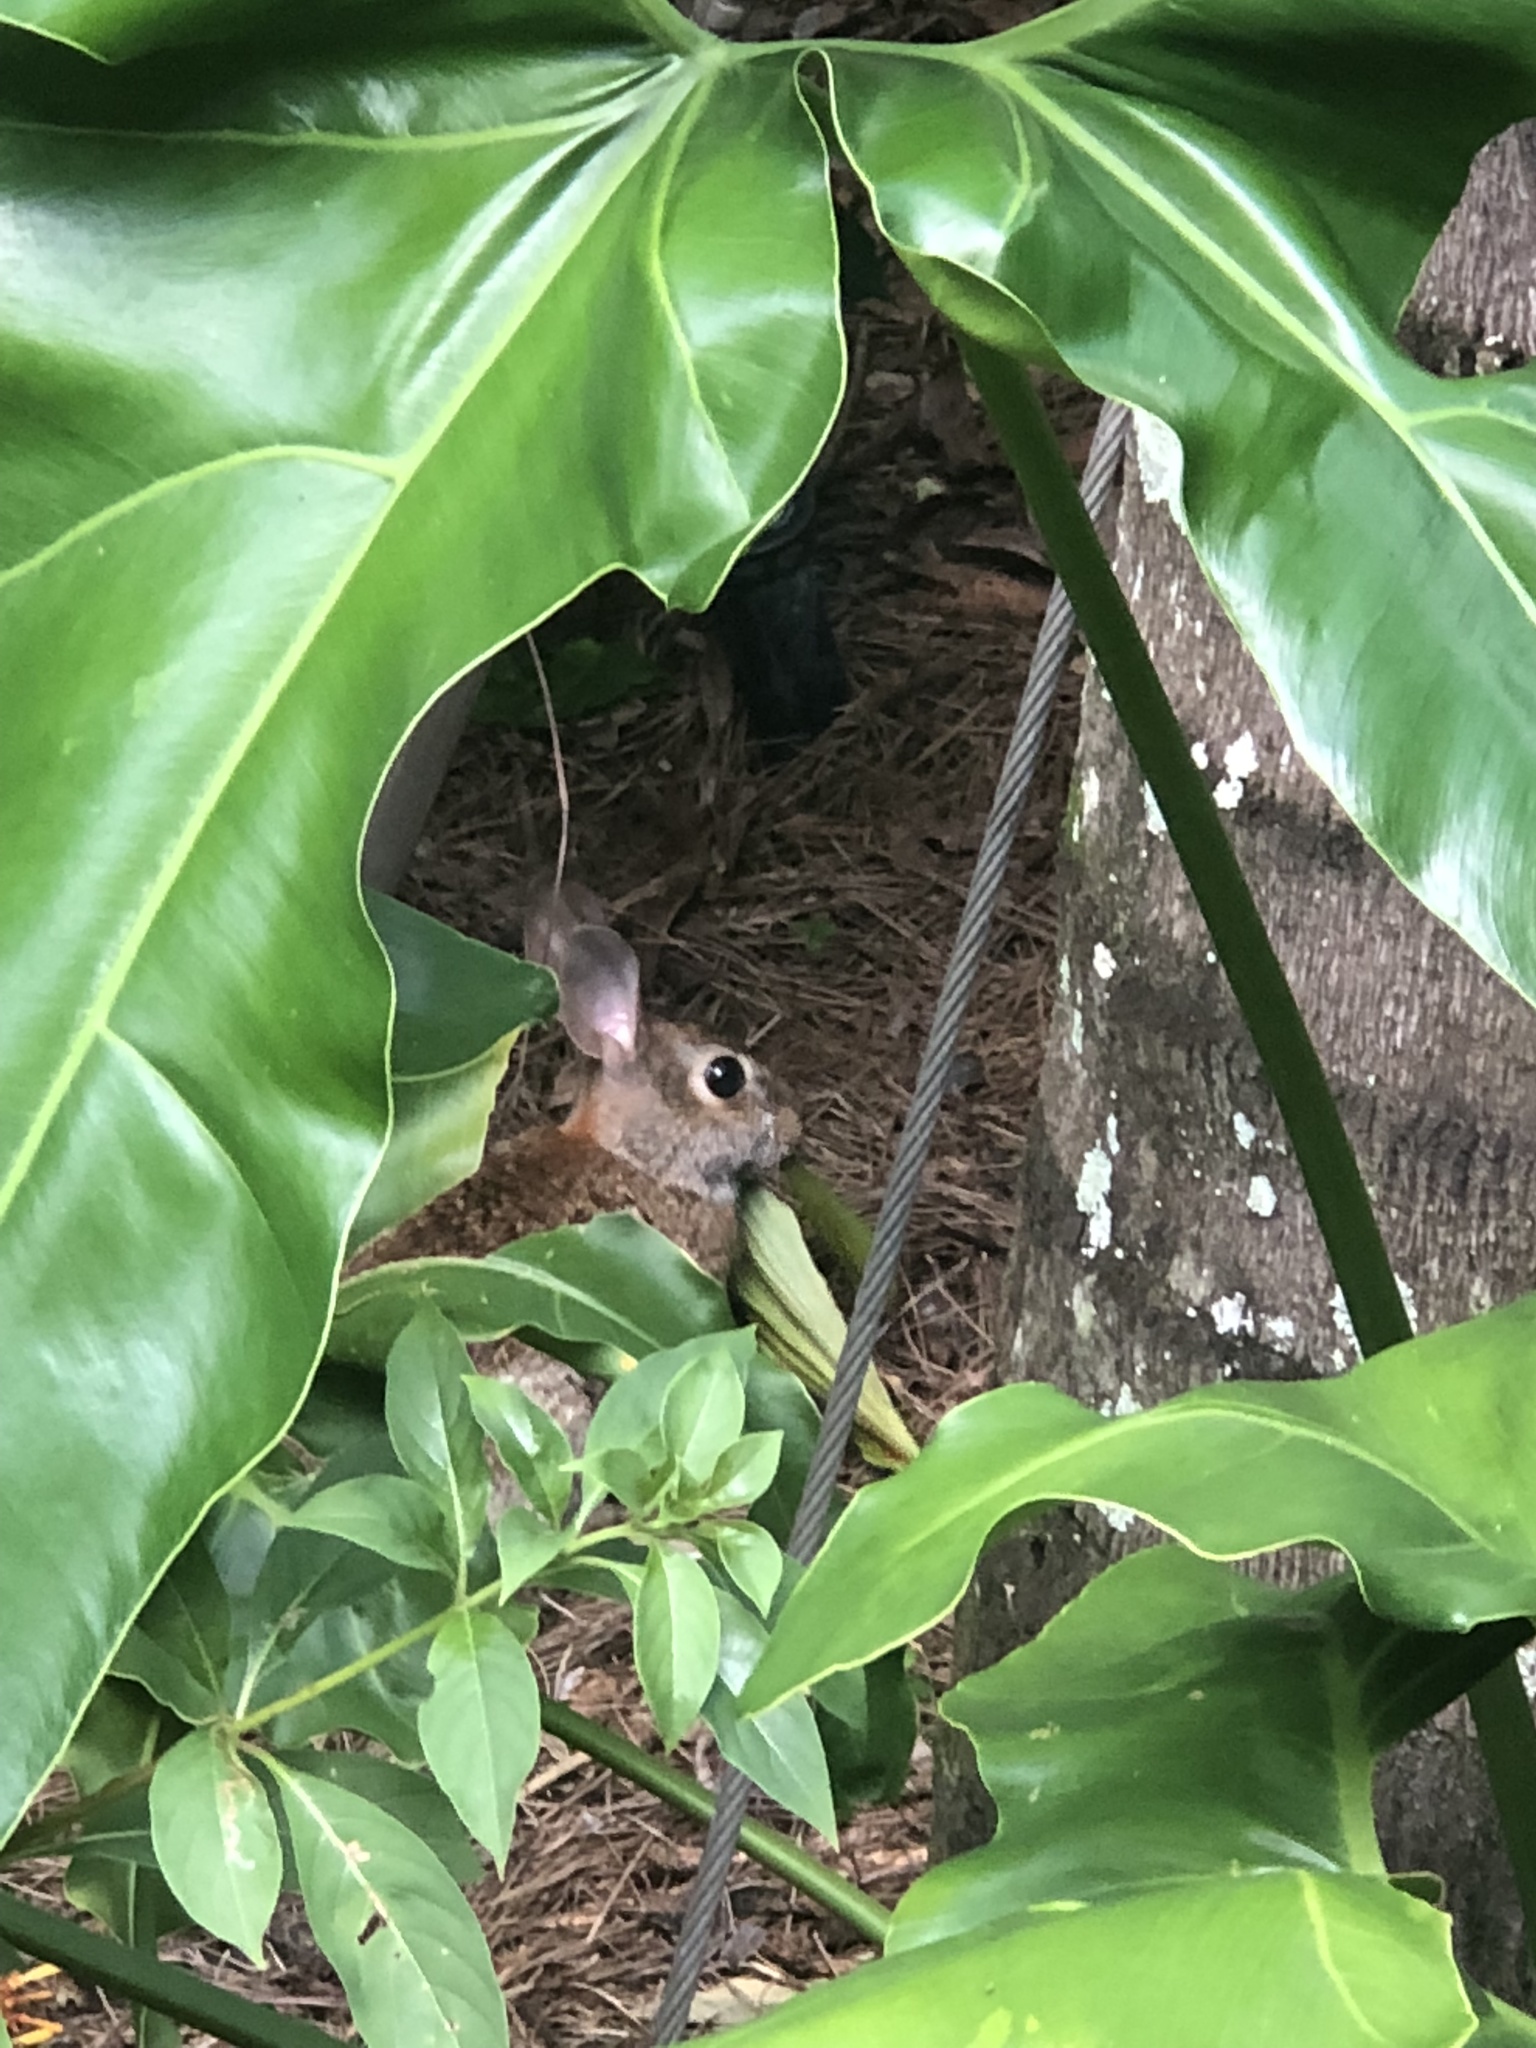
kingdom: Animalia
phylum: Chordata
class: Mammalia
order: Lagomorpha
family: Leporidae
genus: Sylvilagus
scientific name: Sylvilagus floridanus
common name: Eastern cottontail
